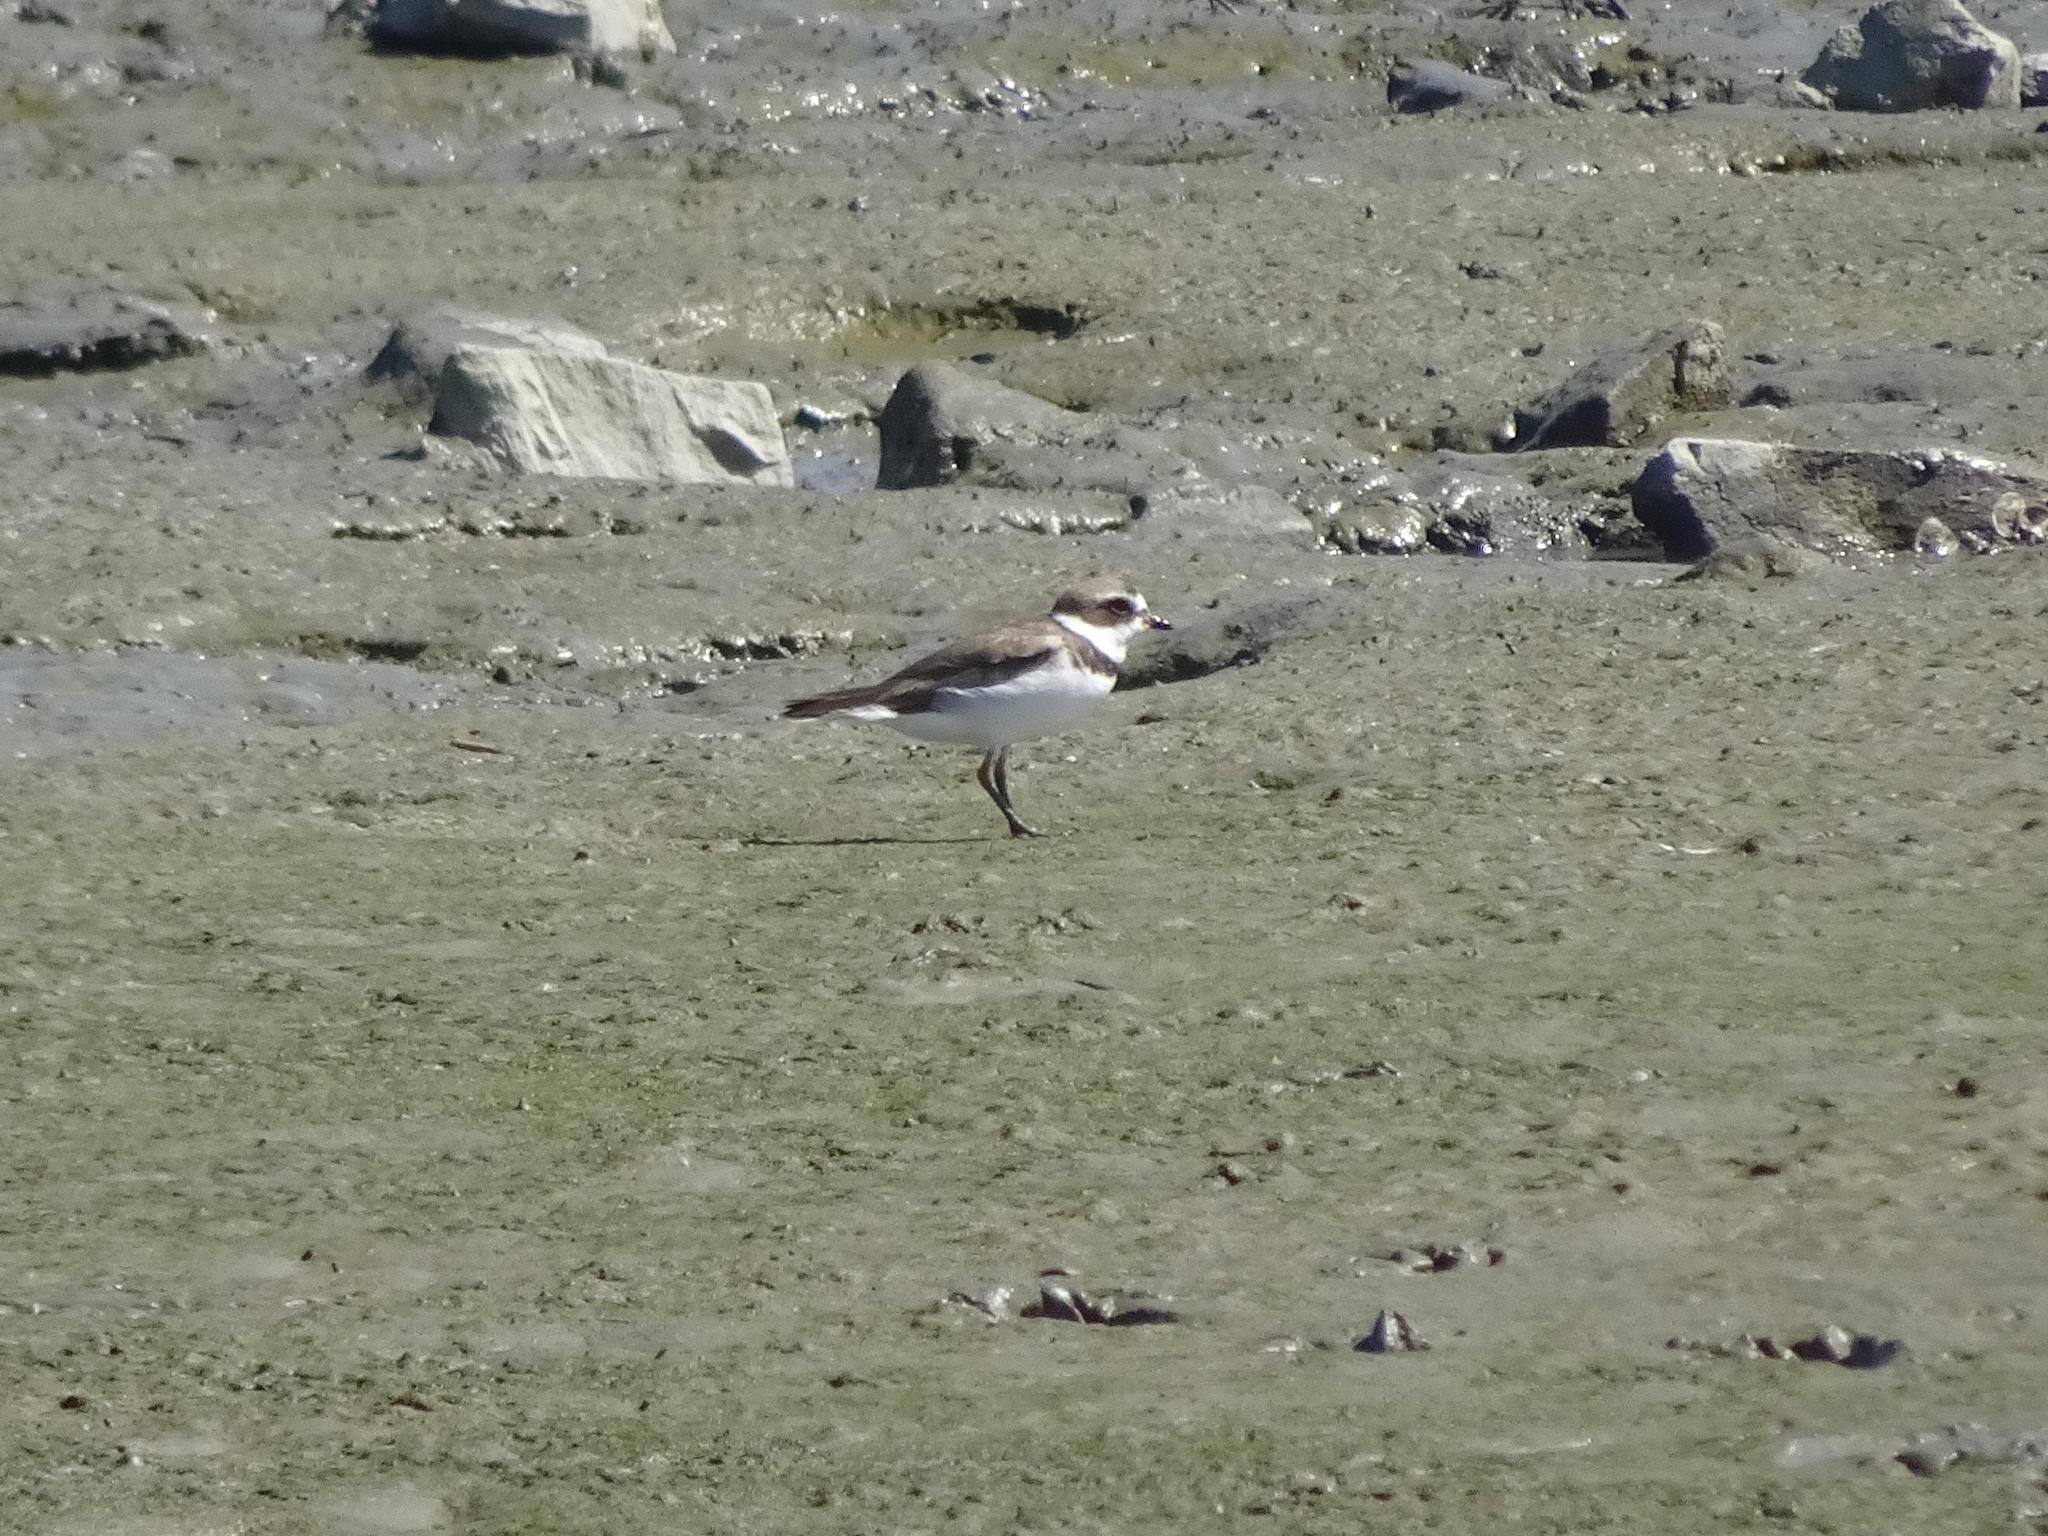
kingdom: Animalia
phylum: Chordata
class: Aves
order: Charadriiformes
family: Charadriidae
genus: Charadrius
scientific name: Charadrius semipalmatus
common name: Semipalmated plover
